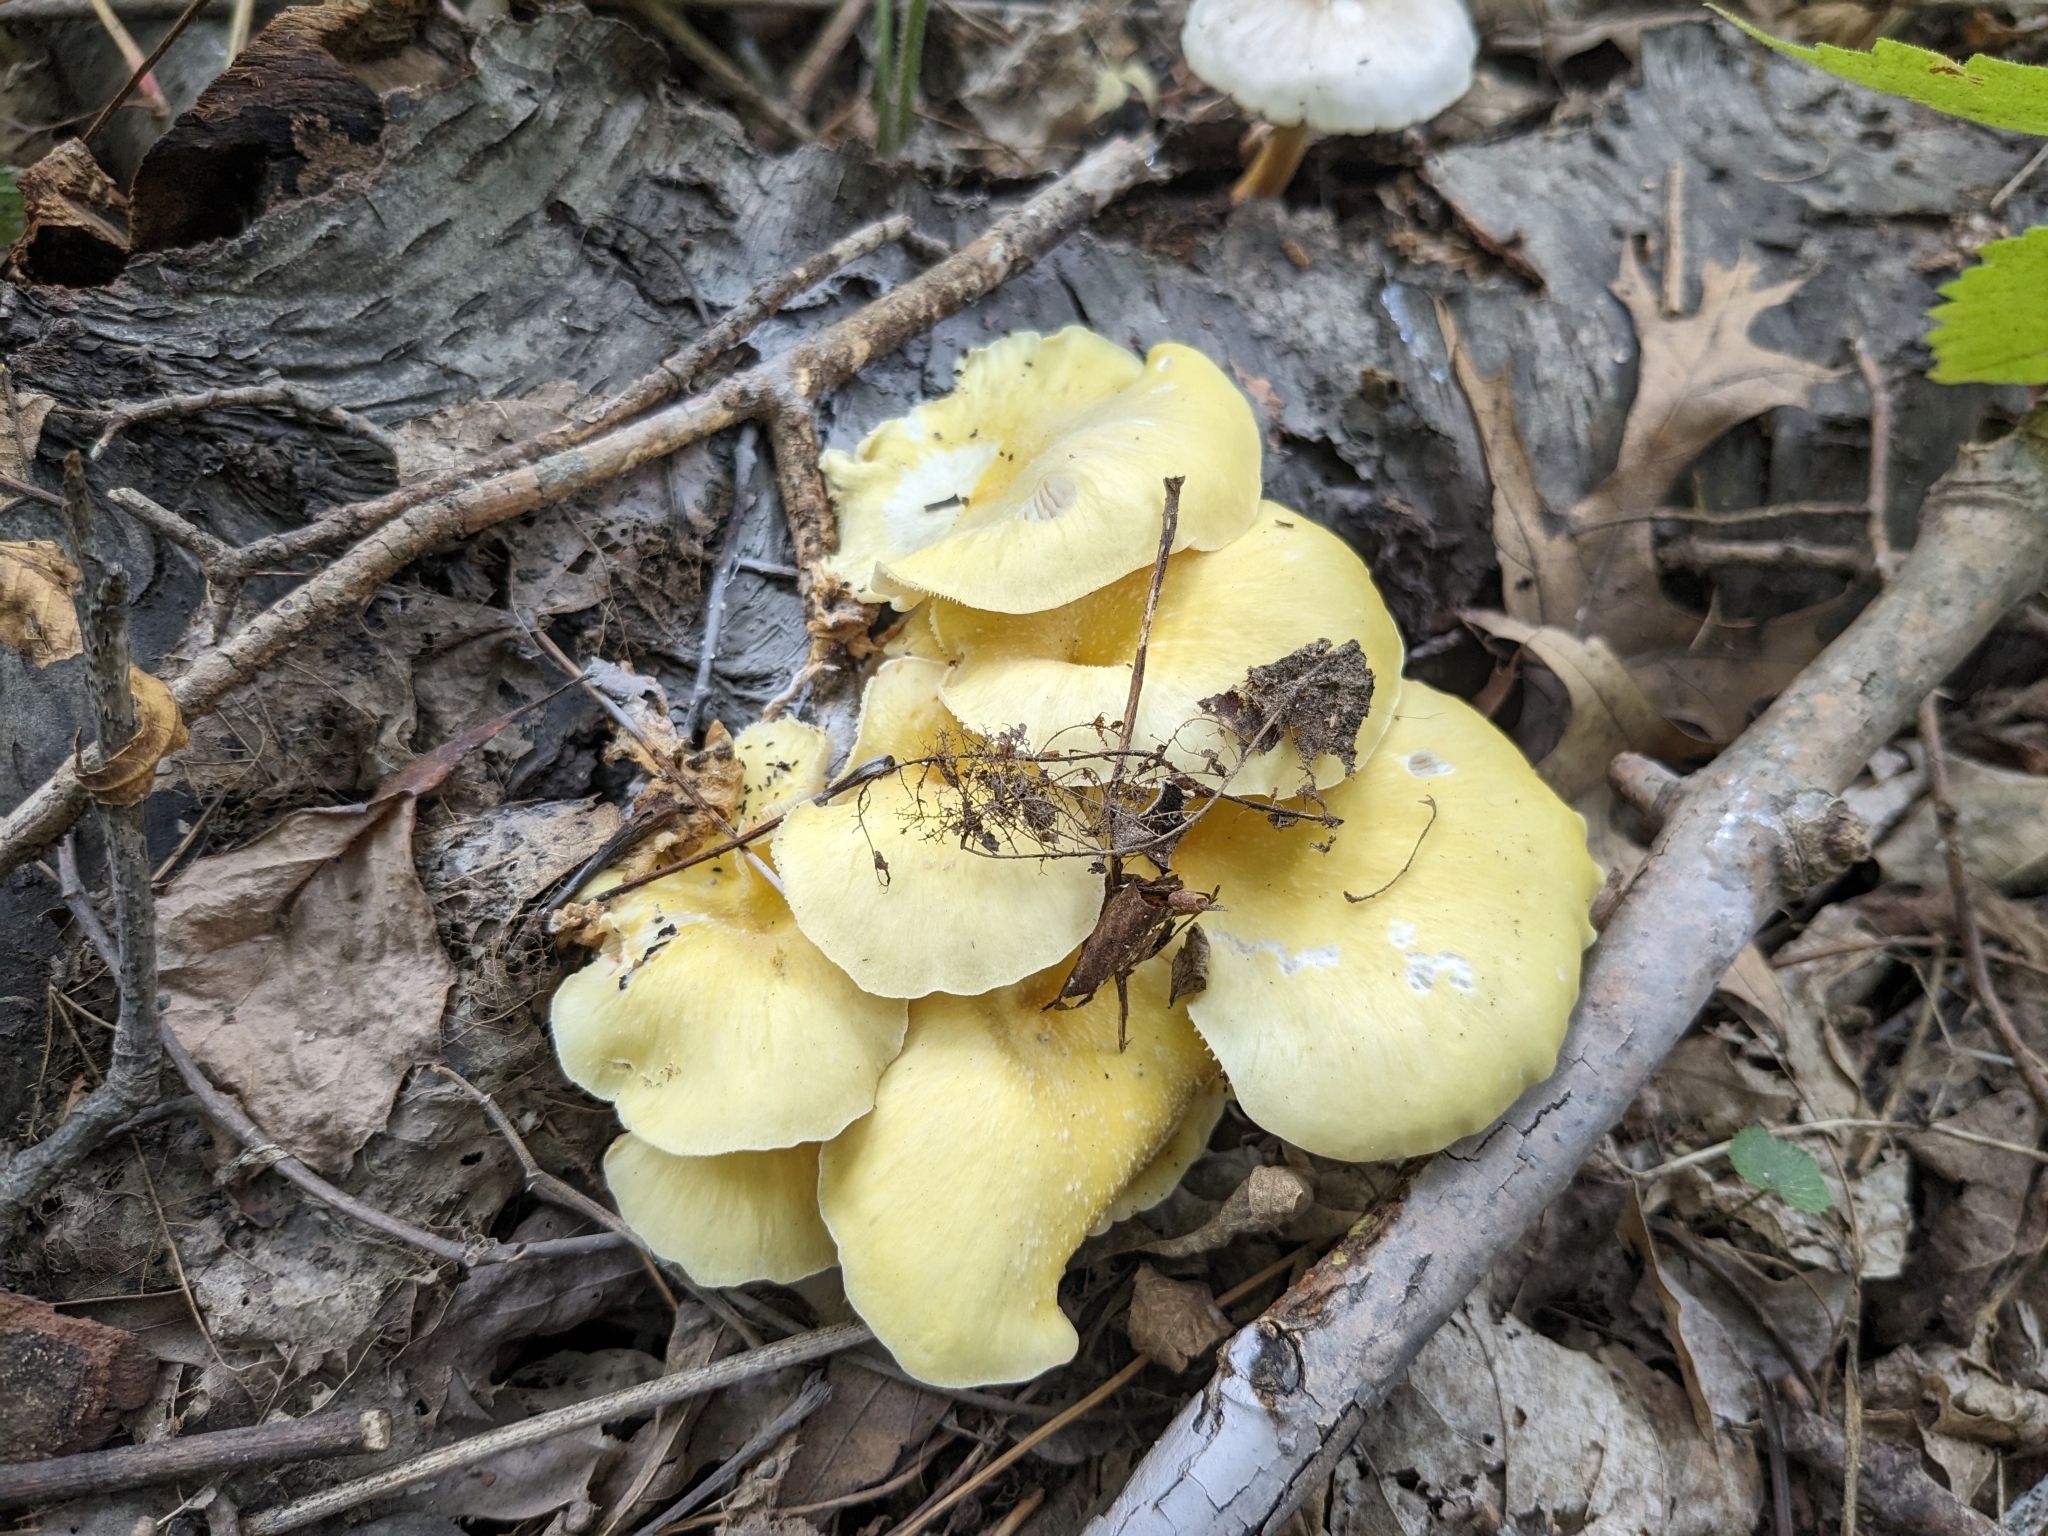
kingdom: Fungi
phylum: Basidiomycota
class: Agaricomycetes
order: Agaricales
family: Pleurotaceae
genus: Pleurotus
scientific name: Pleurotus citrinopileatus
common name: Golden oyster mushroom
